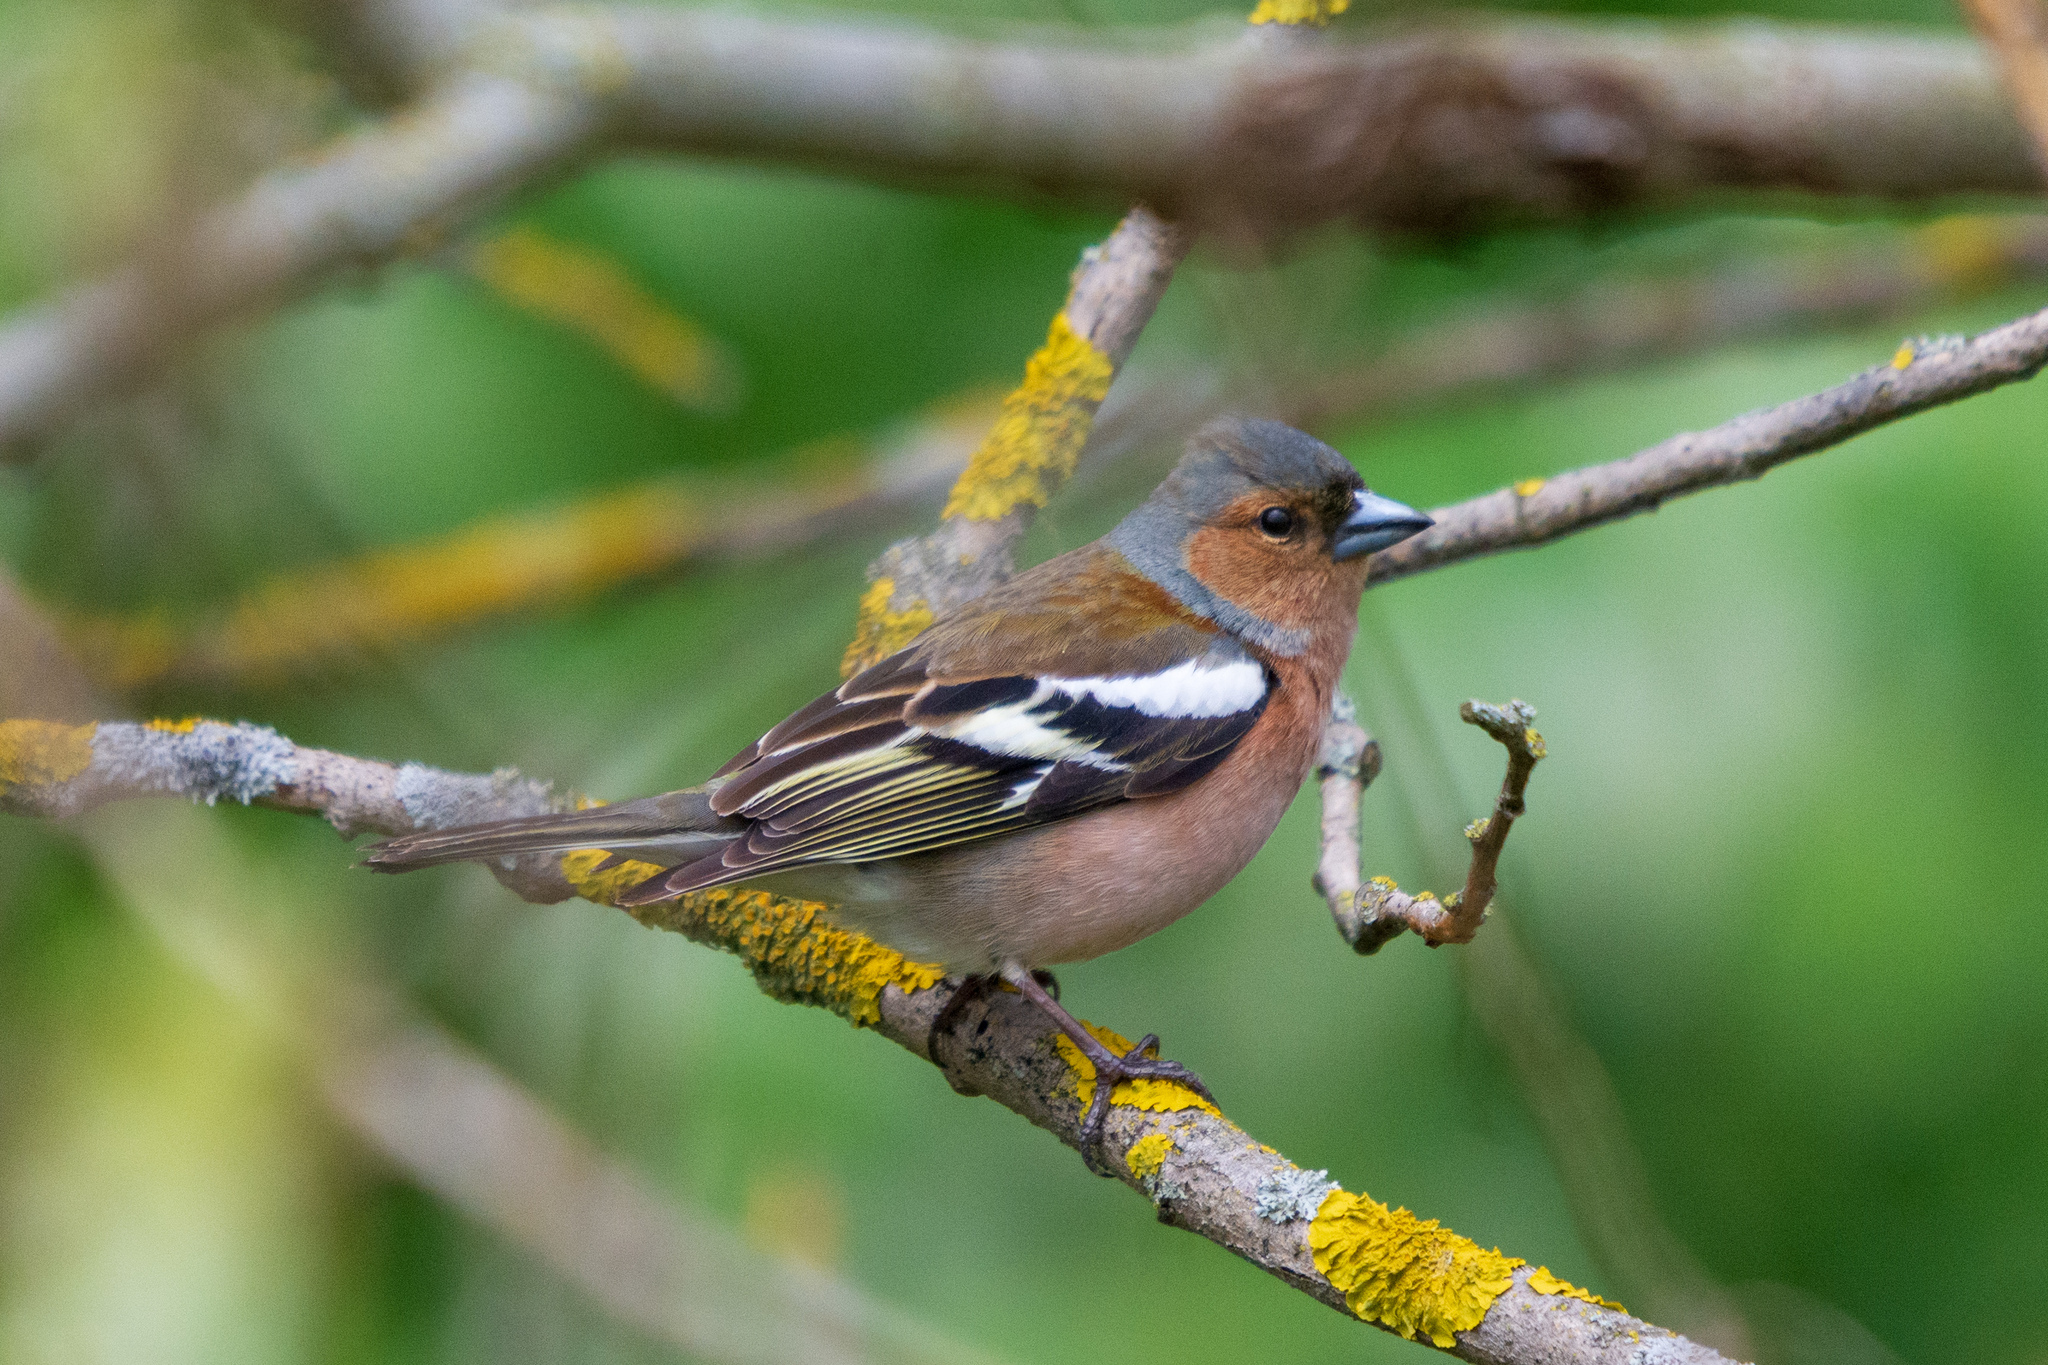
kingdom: Animalia
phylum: Chordata
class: Aves
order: Passeriformes
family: Fringillidae
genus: Fringilla
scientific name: Fringilla coelebs
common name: Common chaffinch
